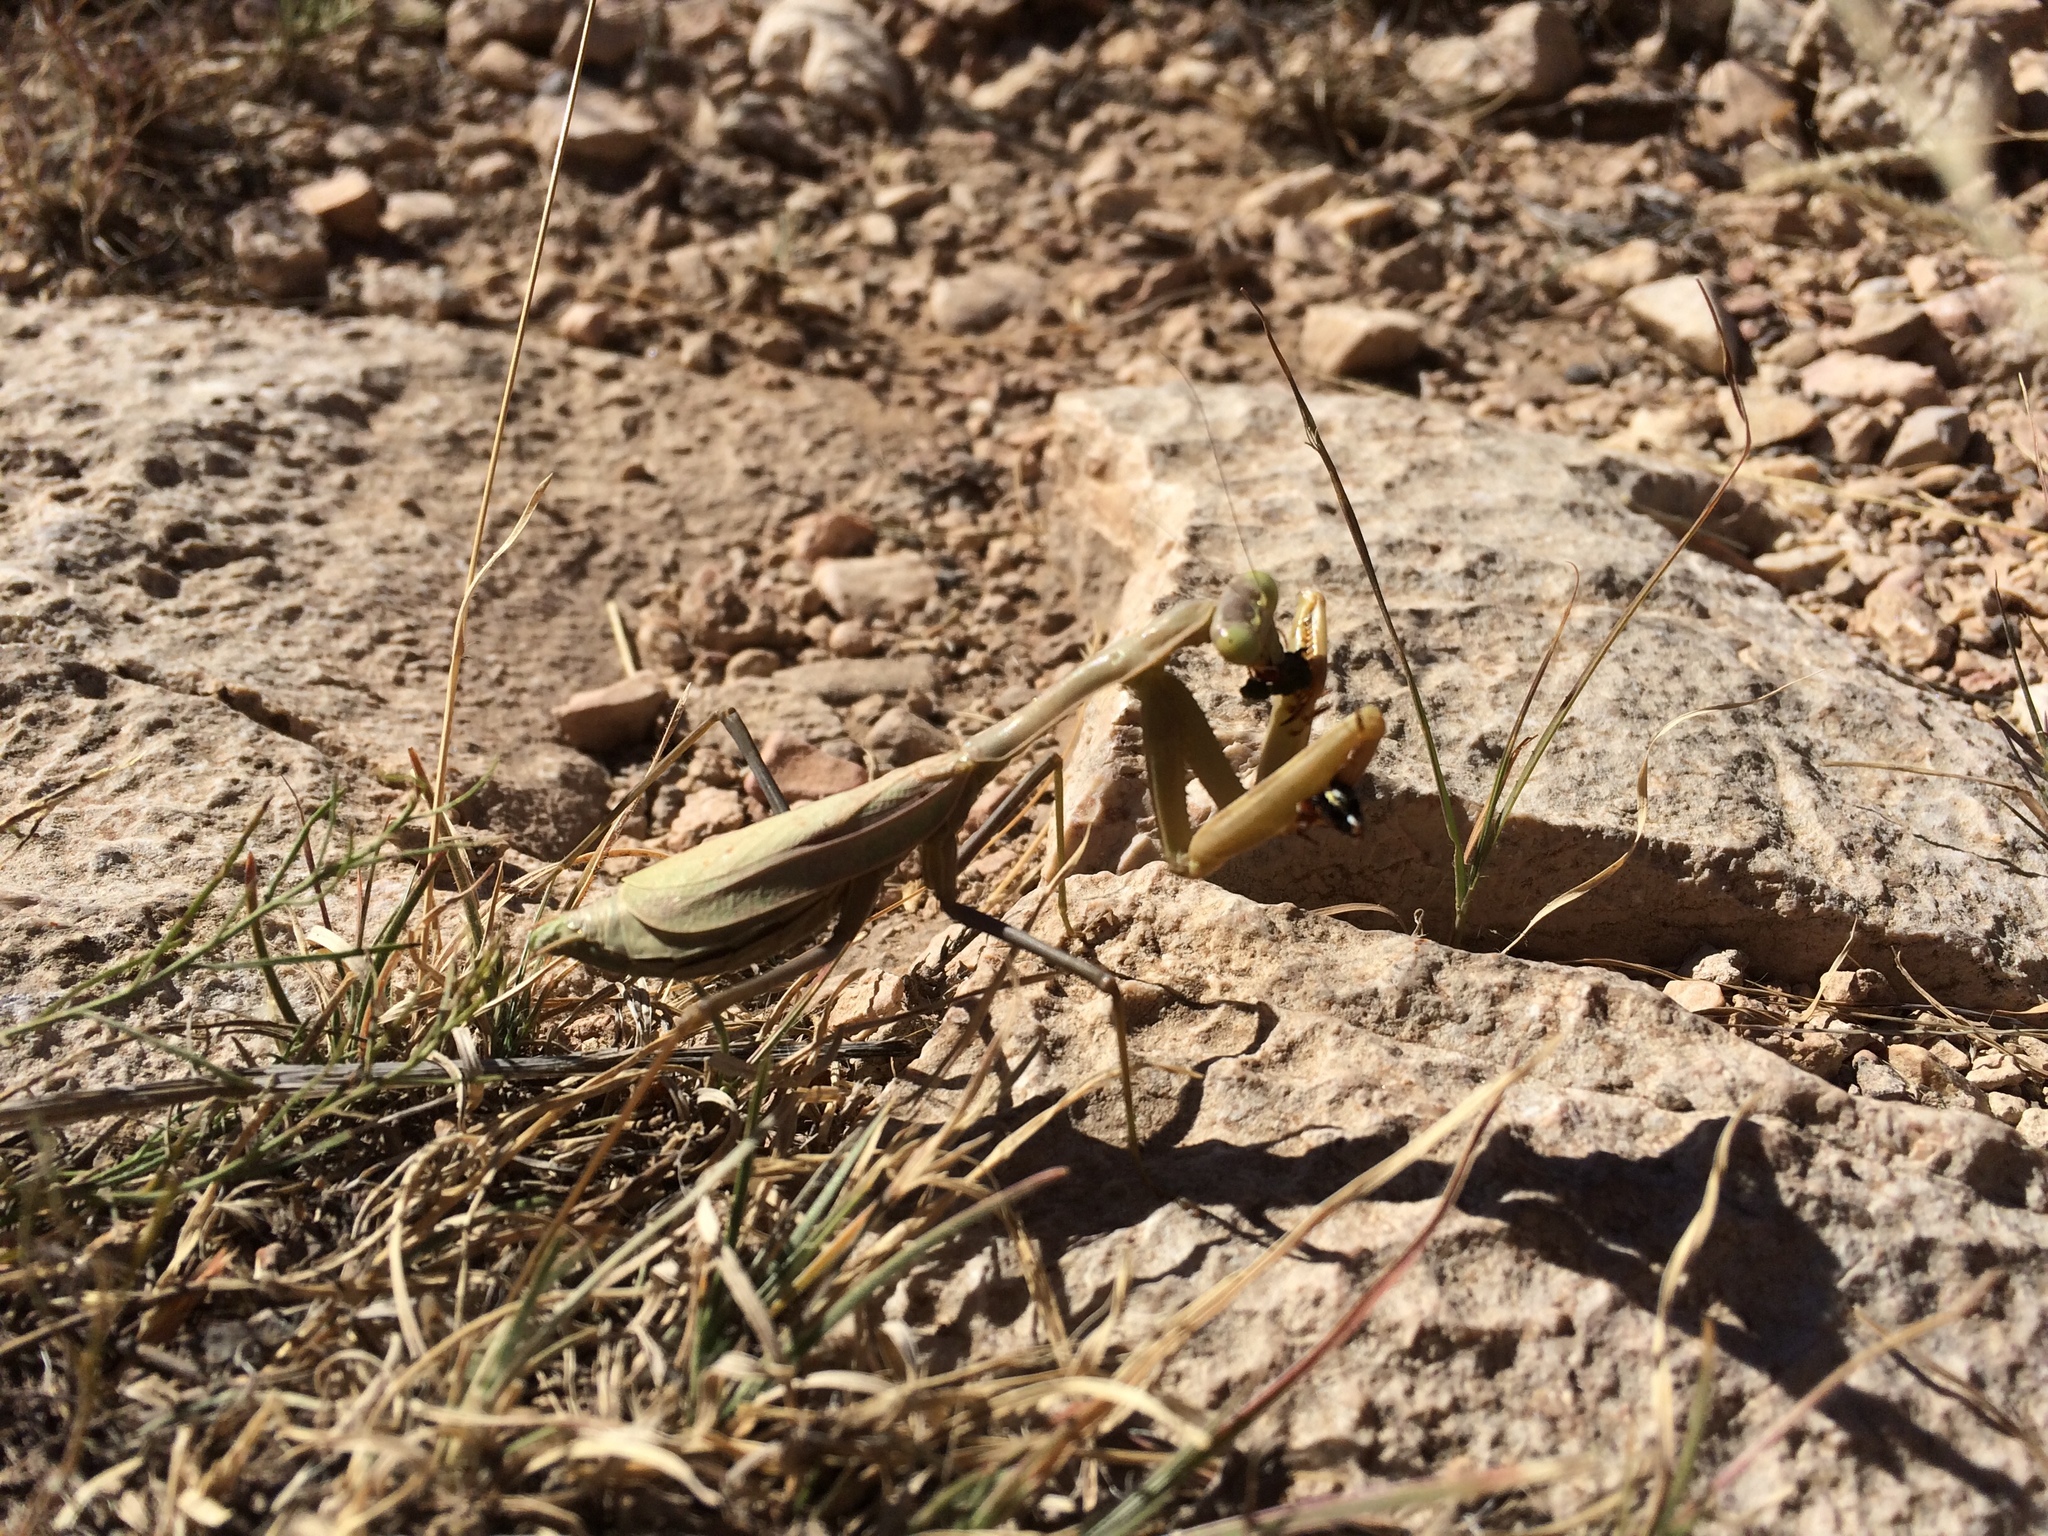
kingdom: Animalia
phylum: Arthropoda
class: Insecta
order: Mantodea
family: Mantidae
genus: Stagmomantis
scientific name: Stagmomantis limbata
